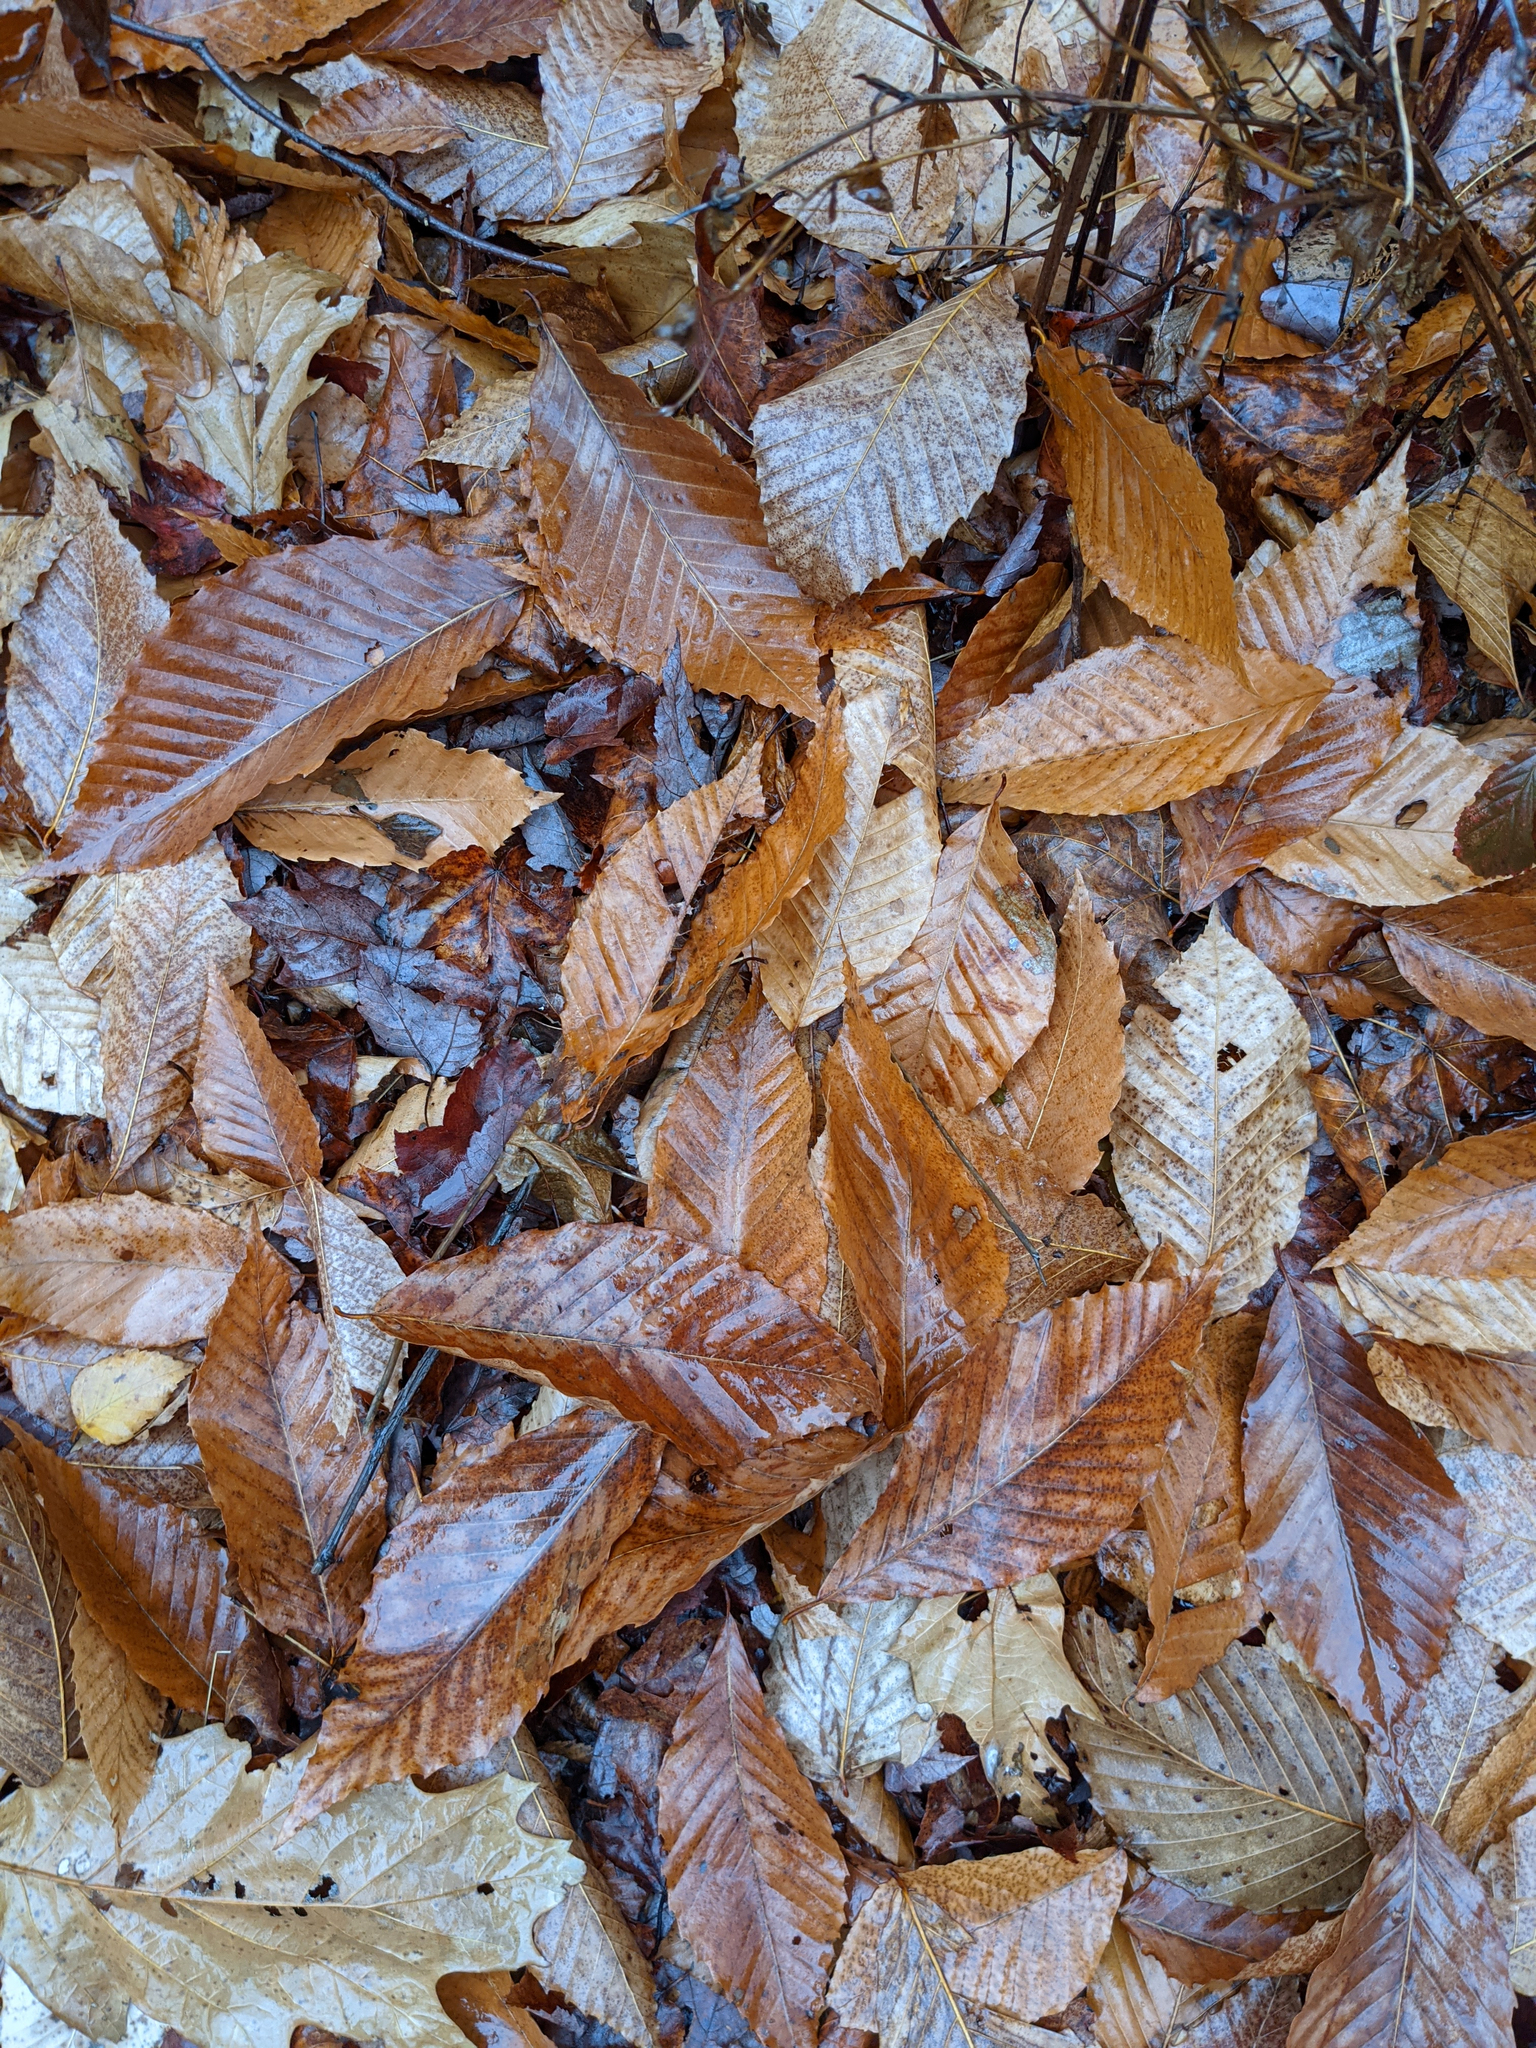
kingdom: Plantae
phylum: Tracheophyta
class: Magnoliopsida
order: Fagales
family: Fagaceae
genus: Fagus
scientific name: Fagus grandifolia
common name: American beech
